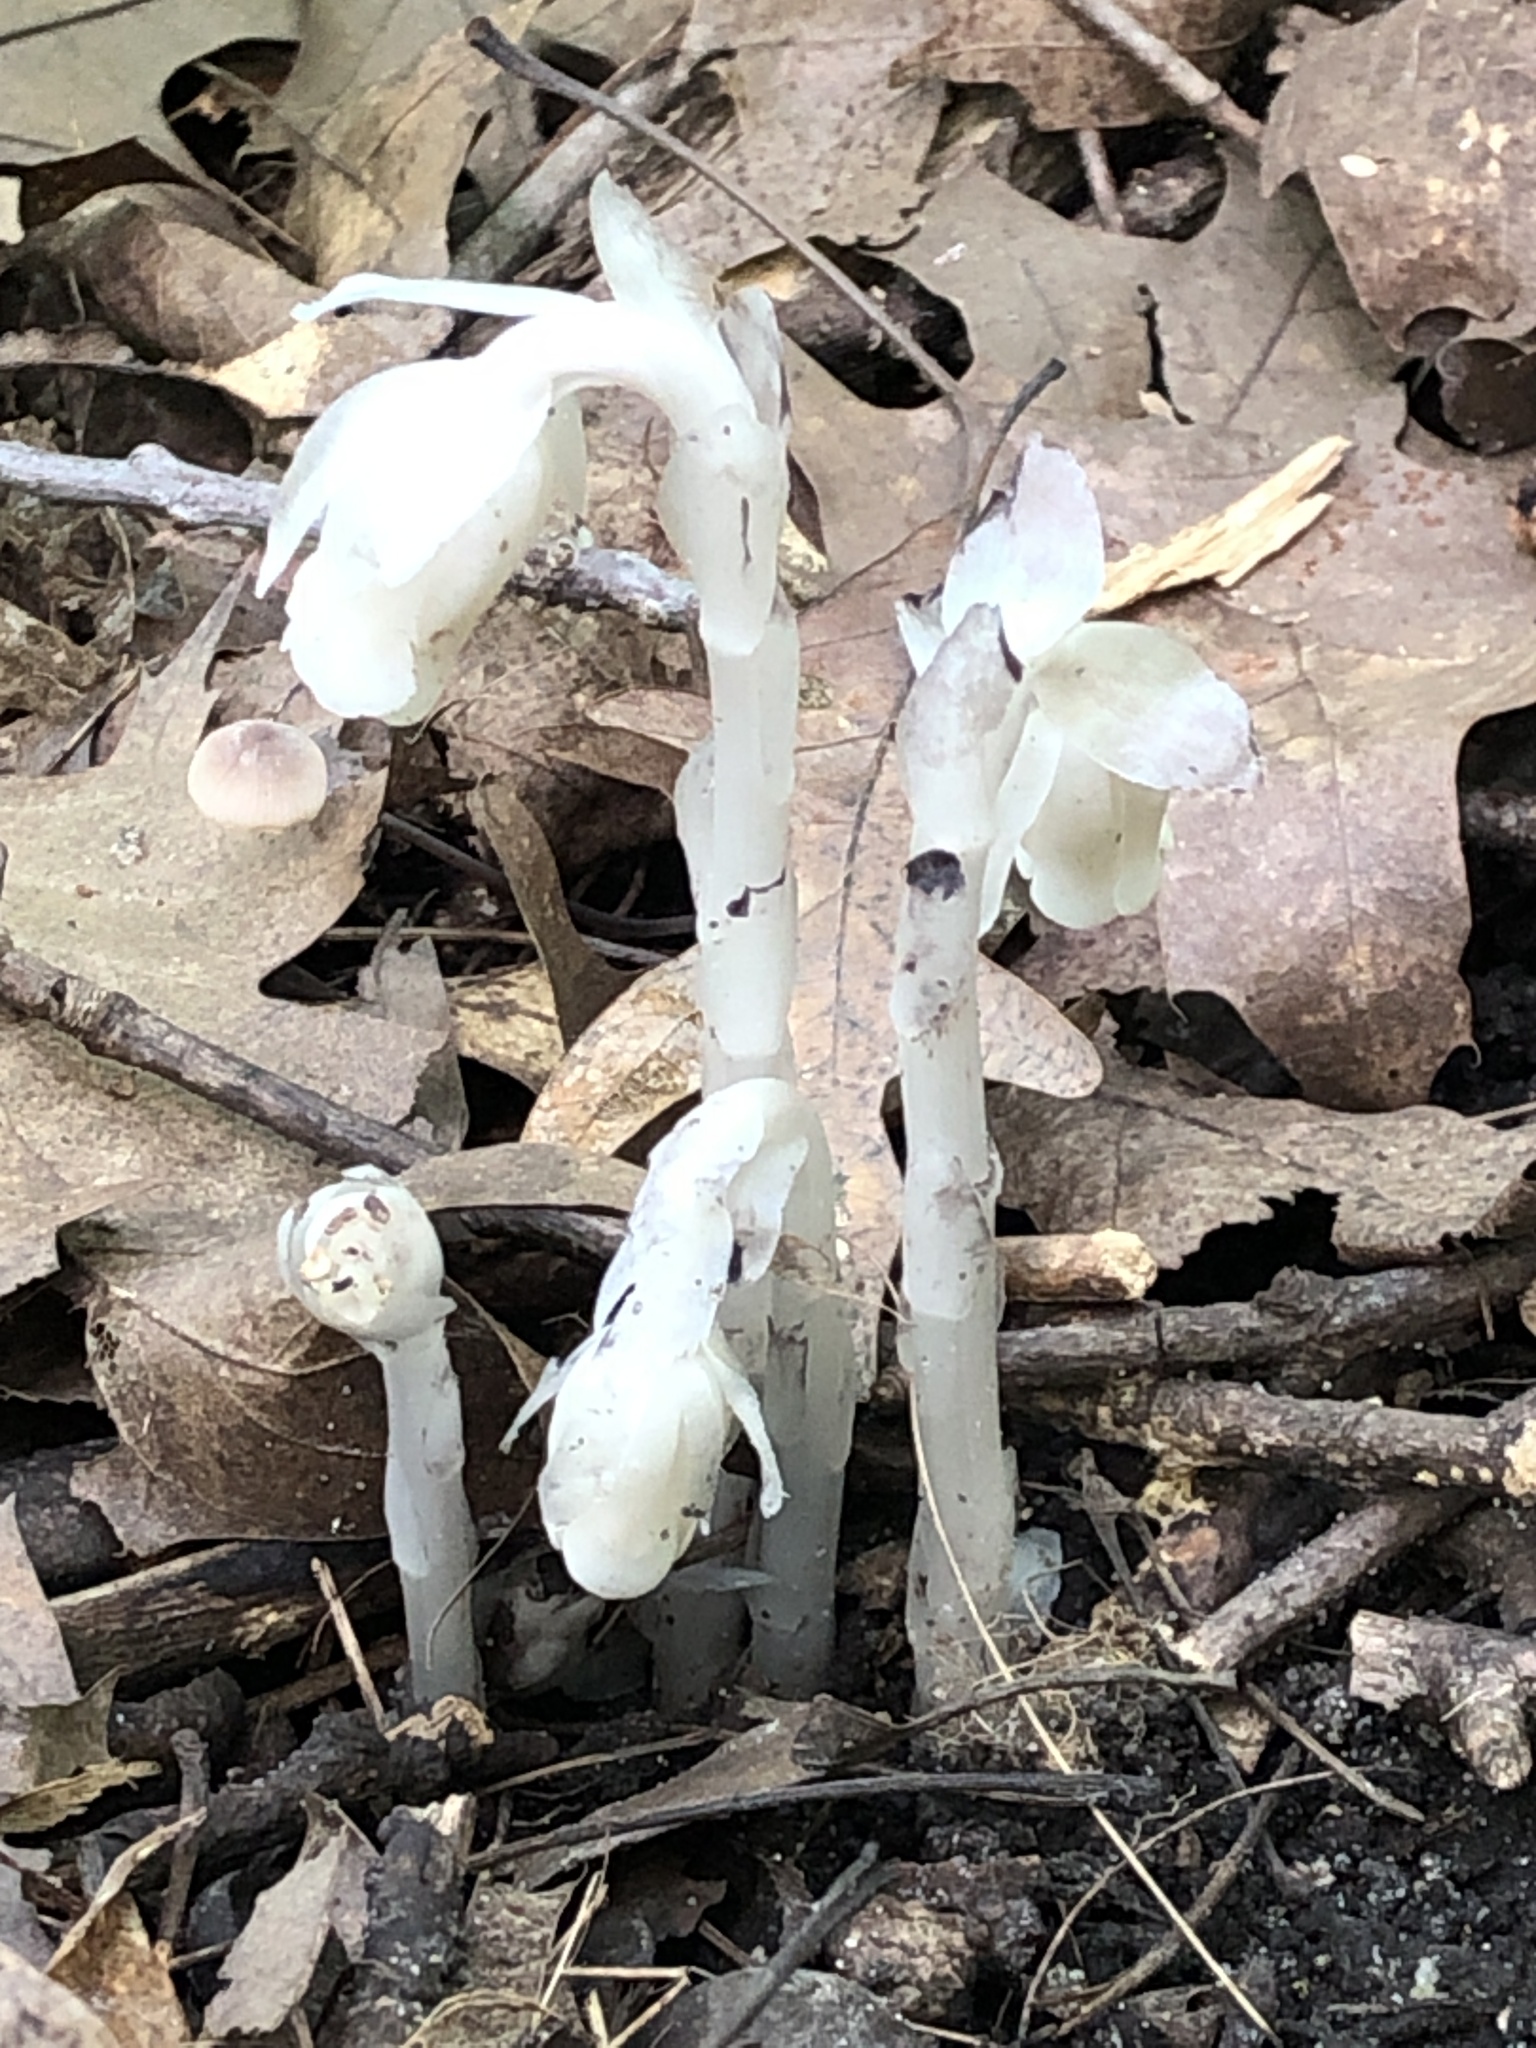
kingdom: Plantae
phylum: Tracheophyta
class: Magnoliopsida
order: Ericales
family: Ericaceae
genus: Monotropa
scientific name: Monotropa uniflora
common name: Convulsion root
